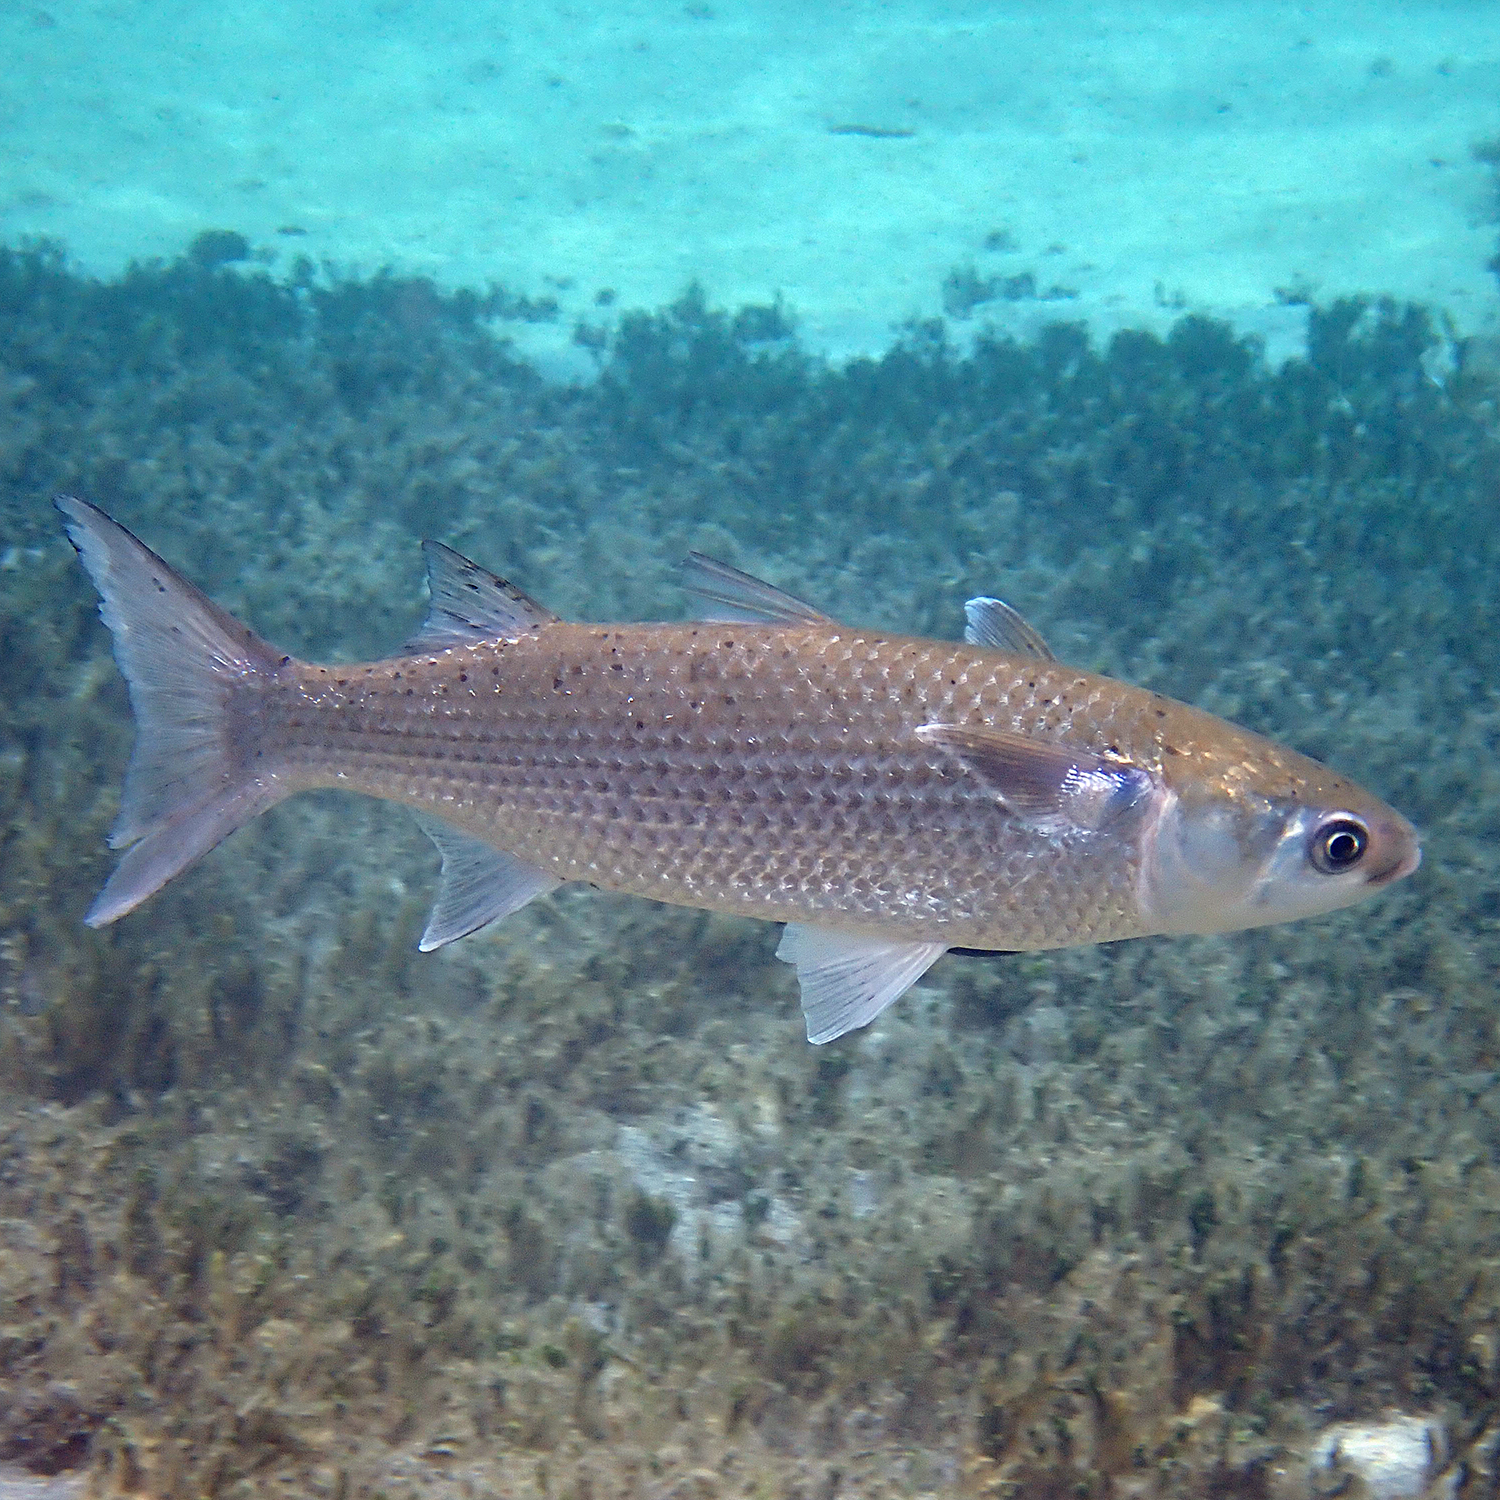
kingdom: Animalia
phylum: Chordata
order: Mugiliformes
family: Mugilidae
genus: Mugil
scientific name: Mugil cephalus
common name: Grey mullet
